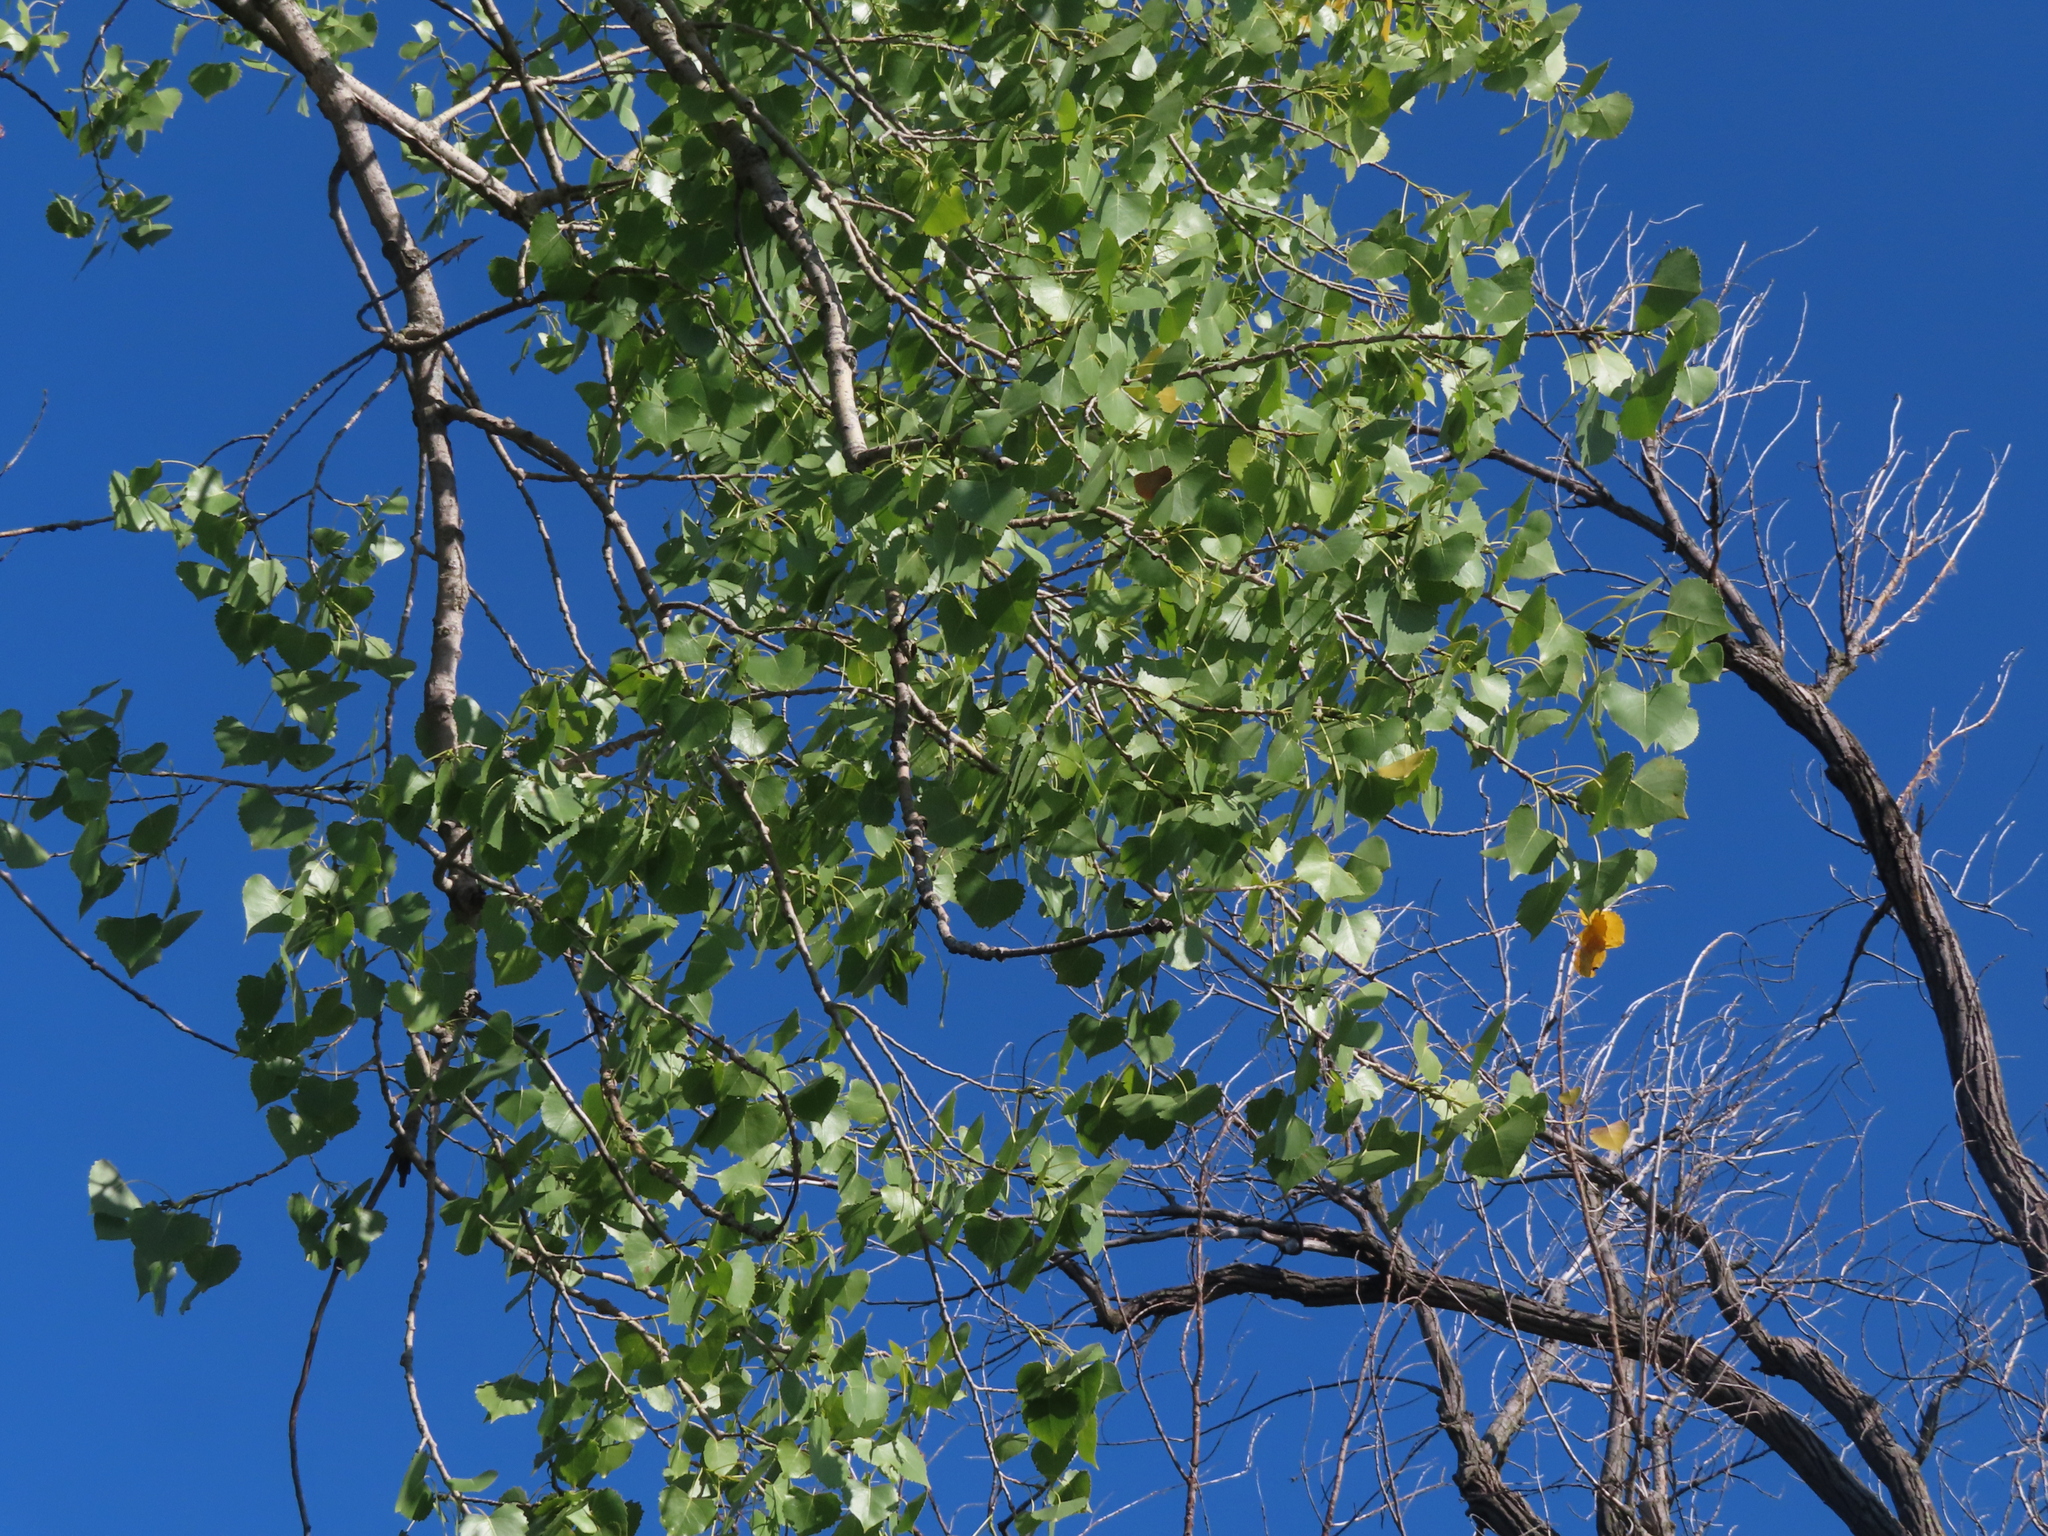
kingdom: Plantae
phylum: Tracheophyta
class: Magnoliopsida
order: Malpighiales
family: Salicaceae
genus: Populus
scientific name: Populus deltoides
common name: Eastern cottonwood
